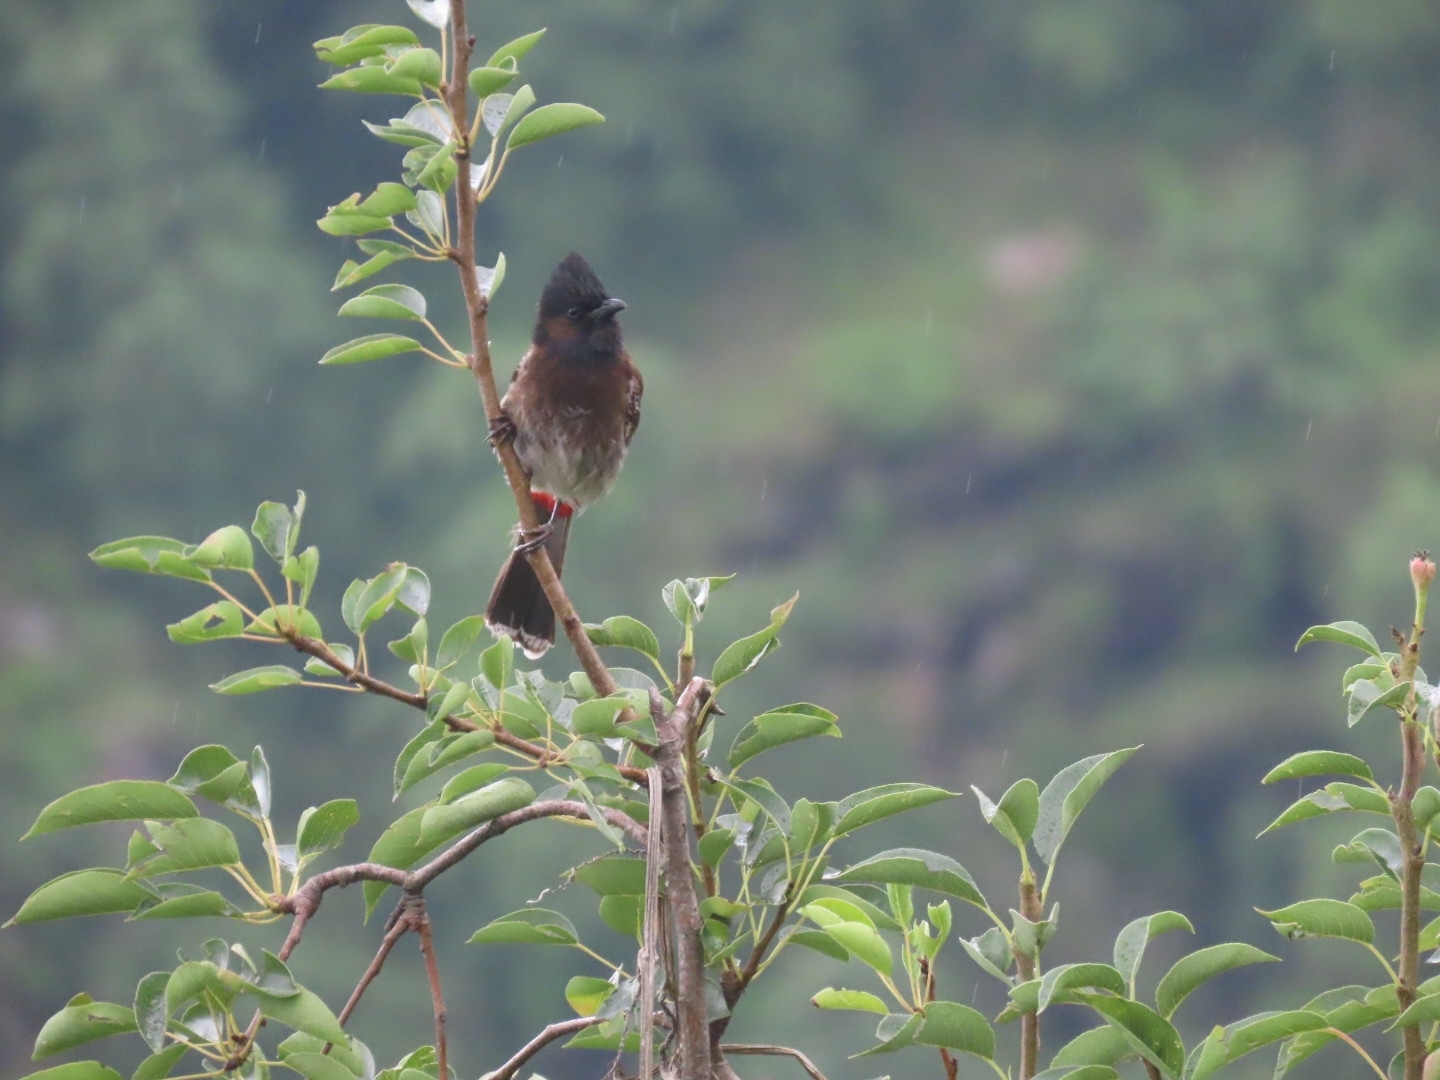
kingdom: Animalia
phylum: Chordata
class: Aves
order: Passeriformes
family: Pycnonotidae
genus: Pycnonotus
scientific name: Pycnonotus cafer
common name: Red-vented bulbul
